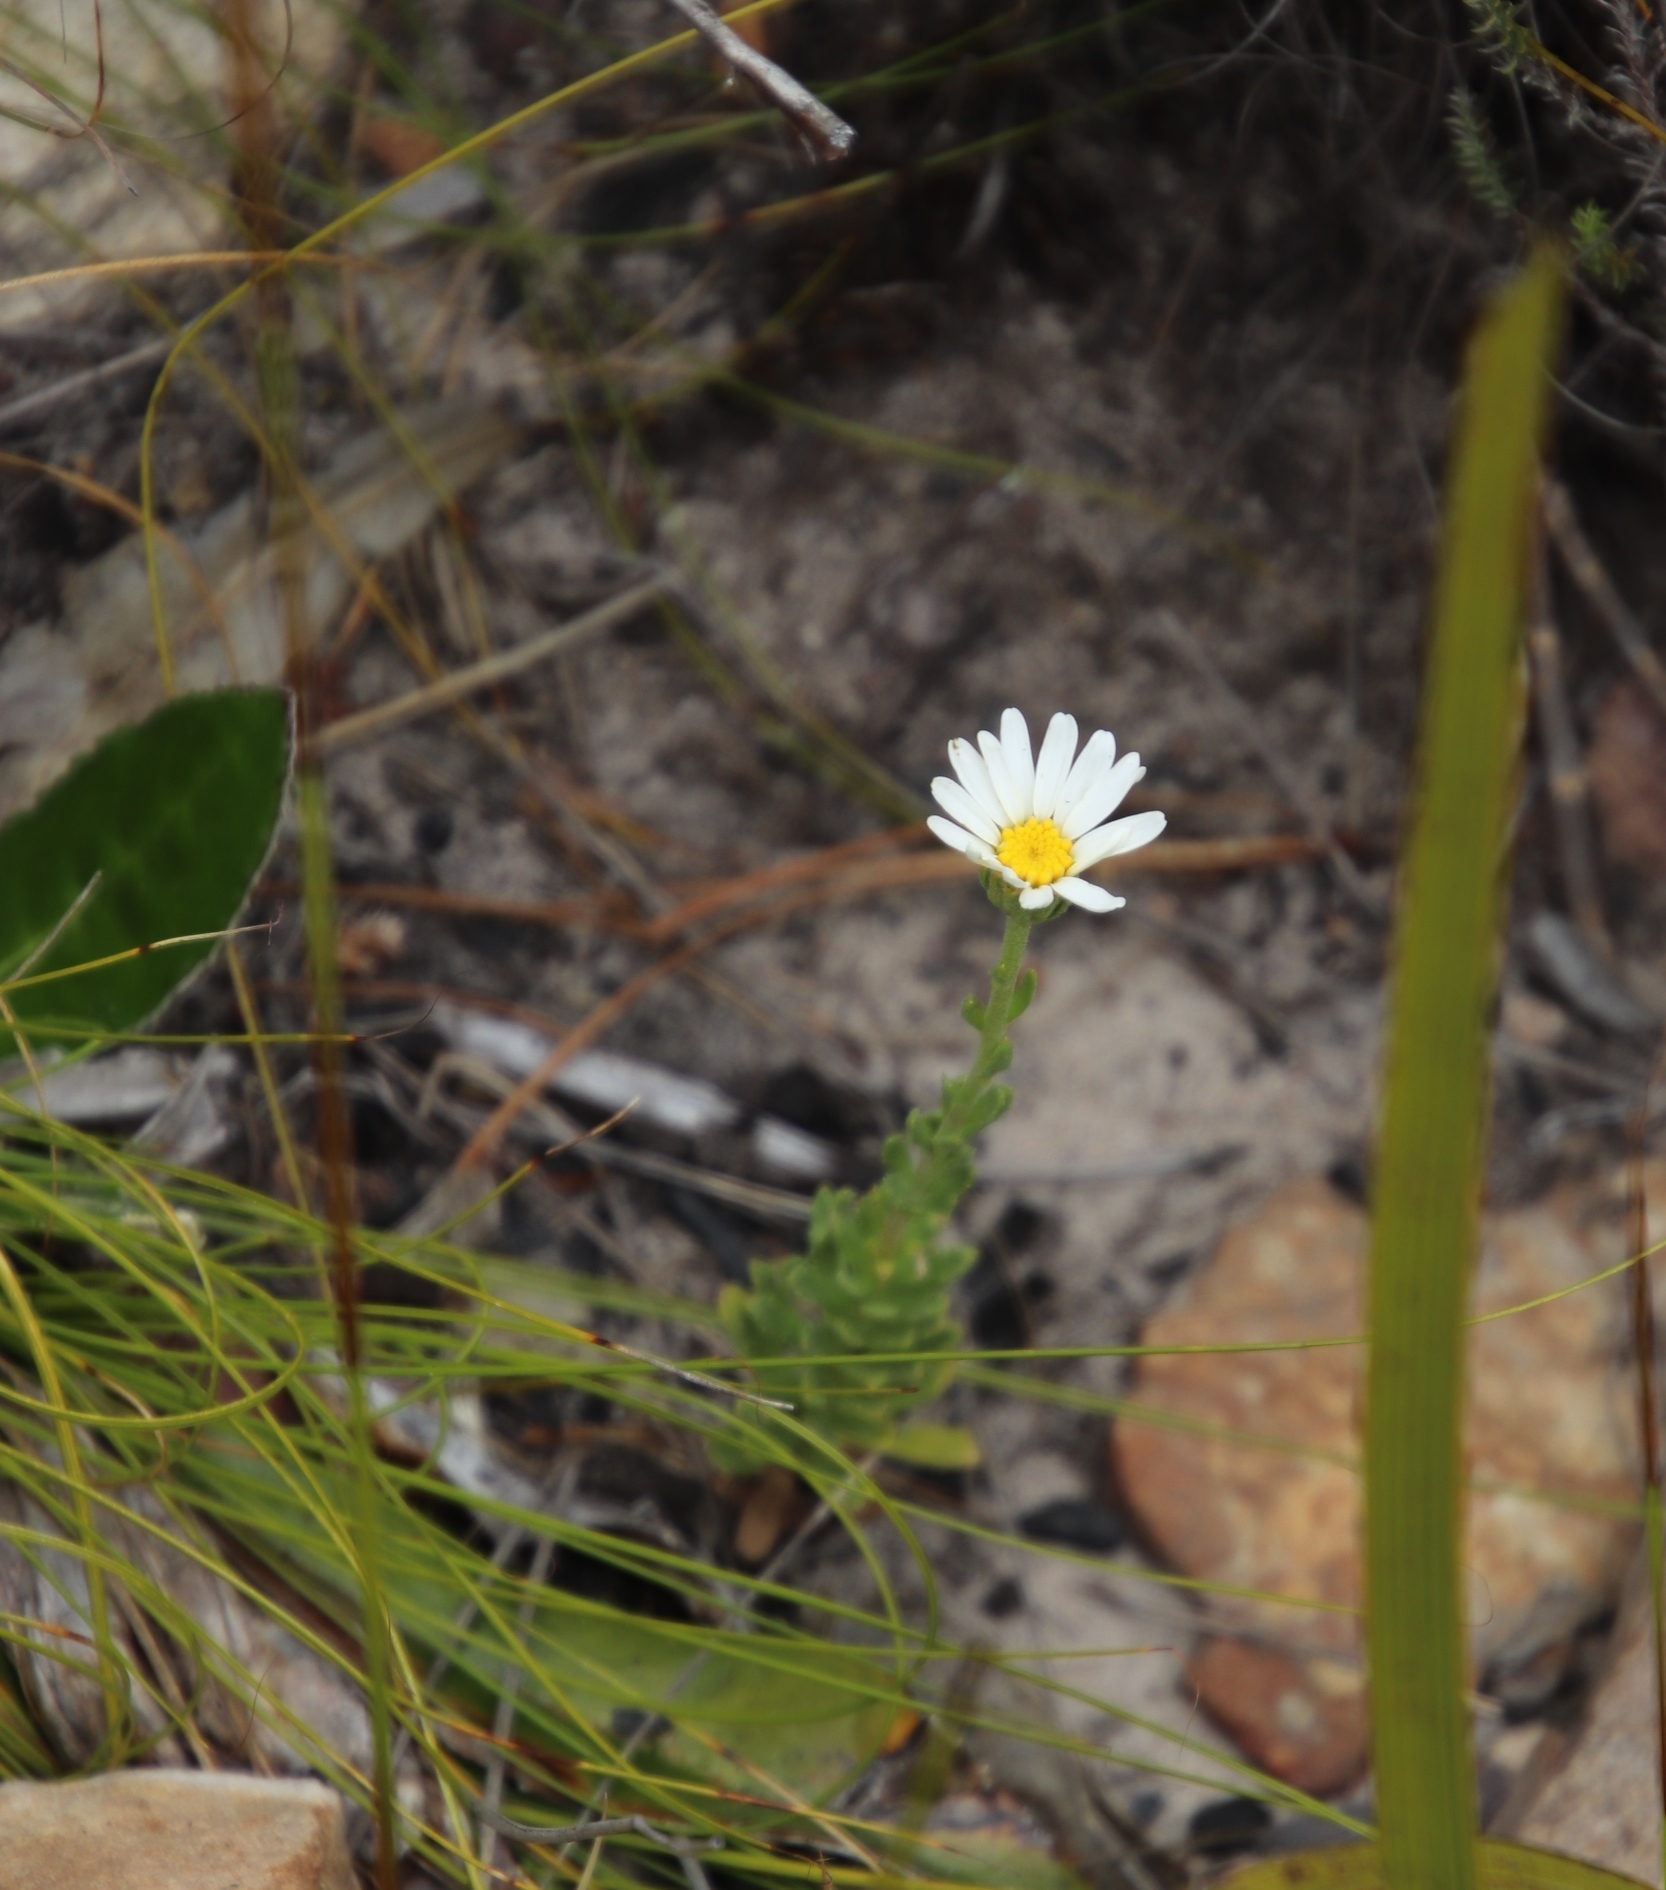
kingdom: Plantae
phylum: Tracheophyta
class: Magnoliopsida
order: Asterales
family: Asteraceae
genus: Osmitopsis
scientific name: Osmitopsis afra
